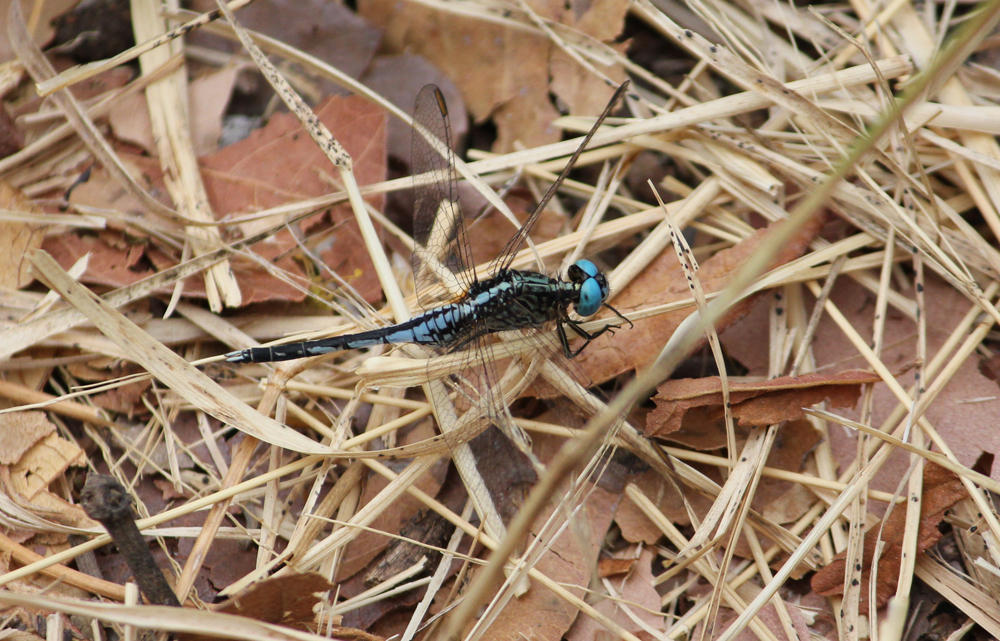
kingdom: Animalia
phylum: Arthropoda
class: Insecta
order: Odonata
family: Libellulidae
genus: Acisoma
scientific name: Acisoma variegatum
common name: Slender pintail
